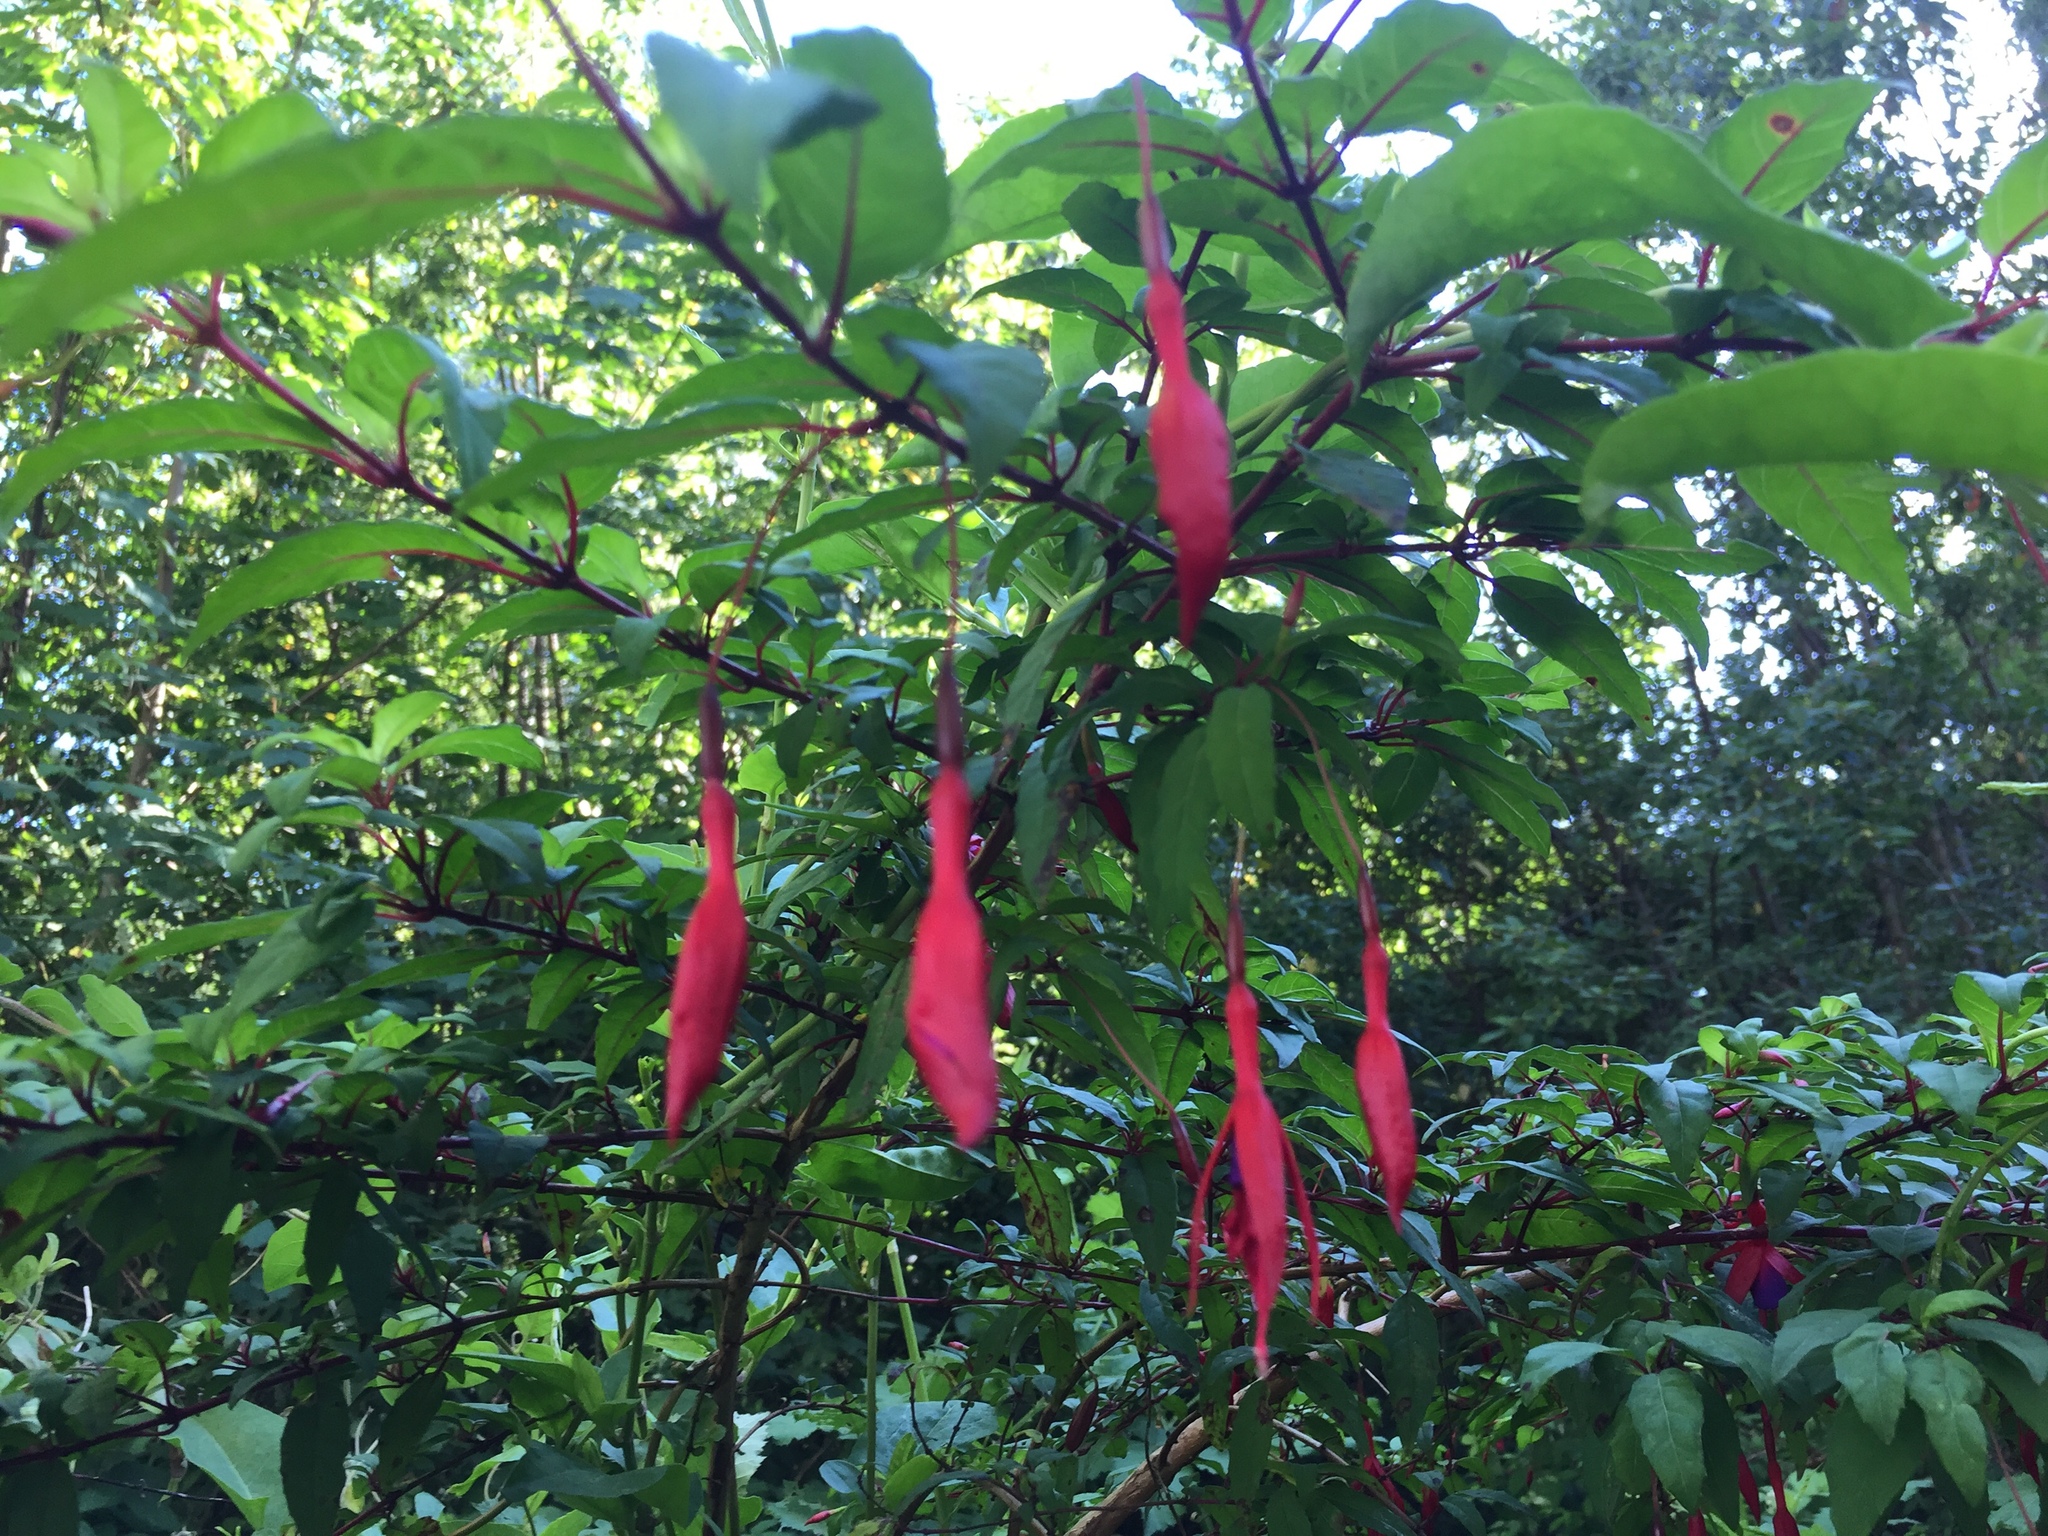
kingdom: Plantae
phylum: Tracheophyta
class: Magnoliopsida
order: Myrtales
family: Onagraceae
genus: Fuchsia
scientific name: Fuchsia magellanica
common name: Hardy fuchsia
